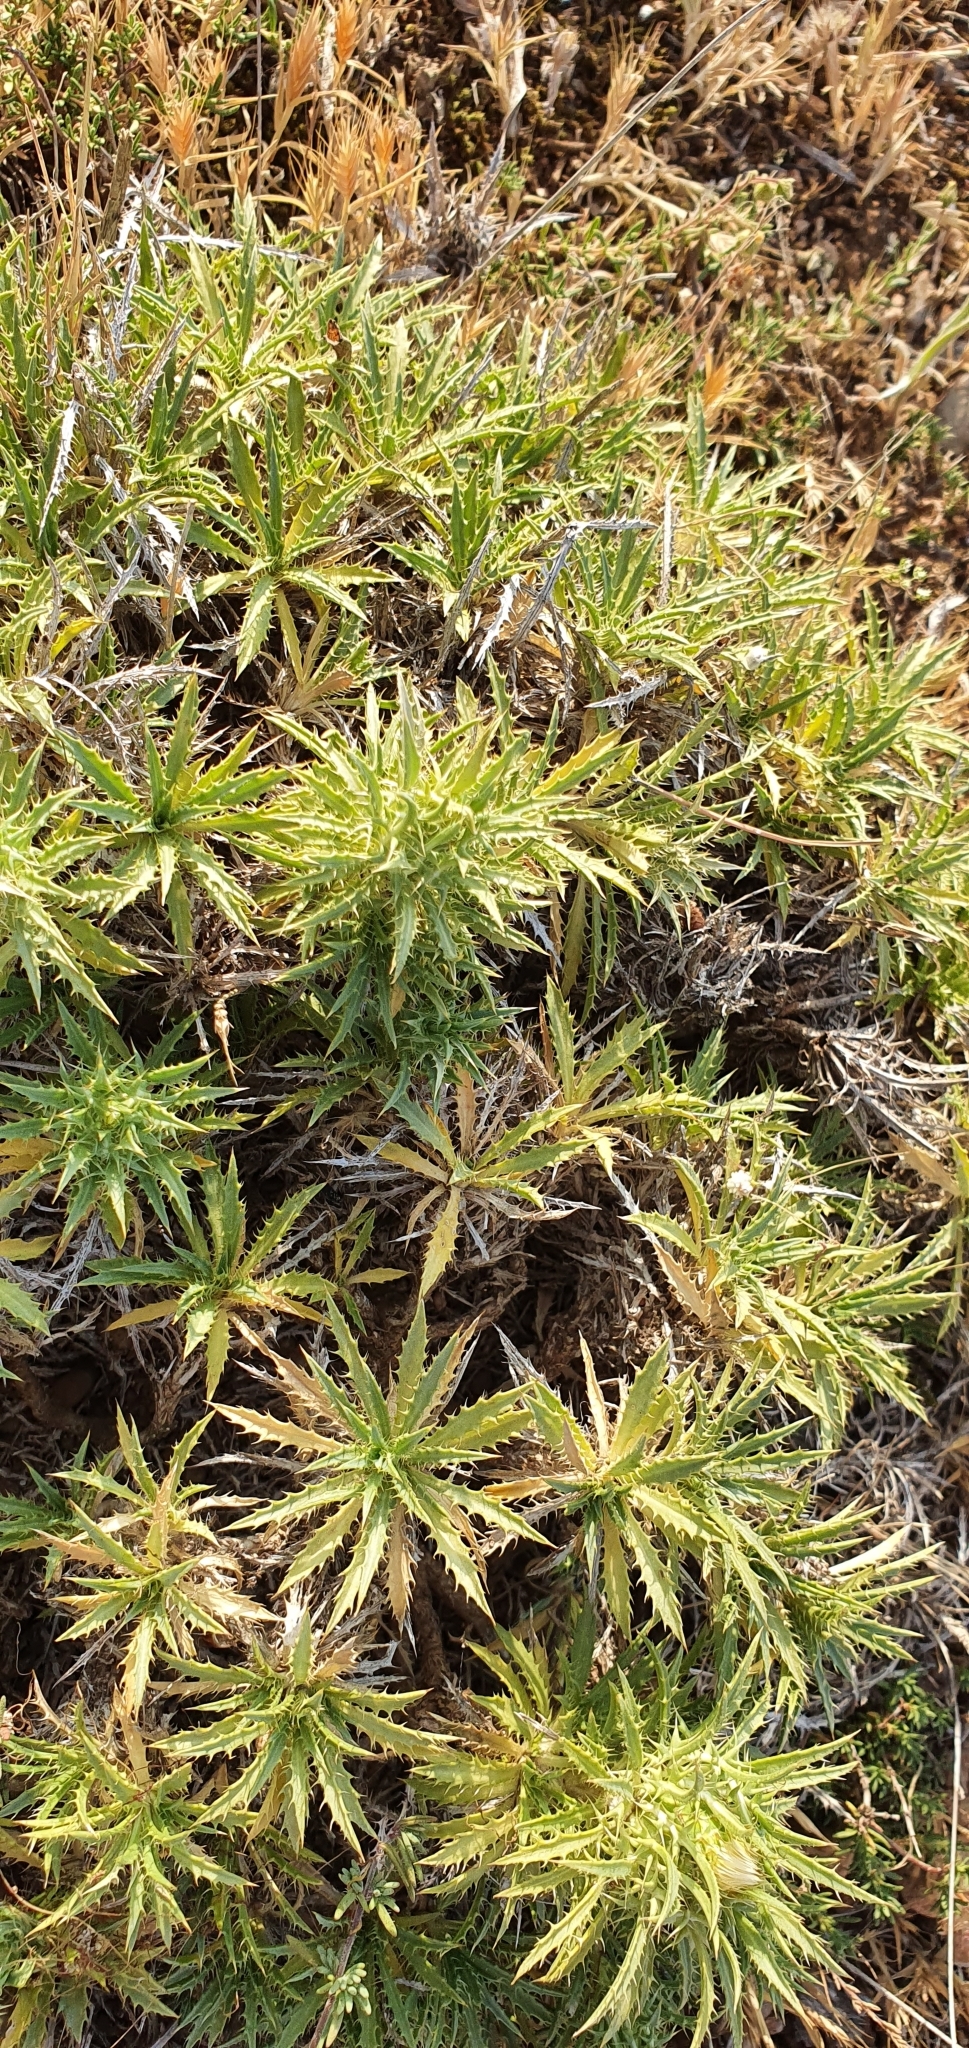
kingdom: Plantae
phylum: Tracheophyta
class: Magnoliopsida
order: Asterales
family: Asteraceae
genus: Atractylis
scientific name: Atractylis caespitosa
